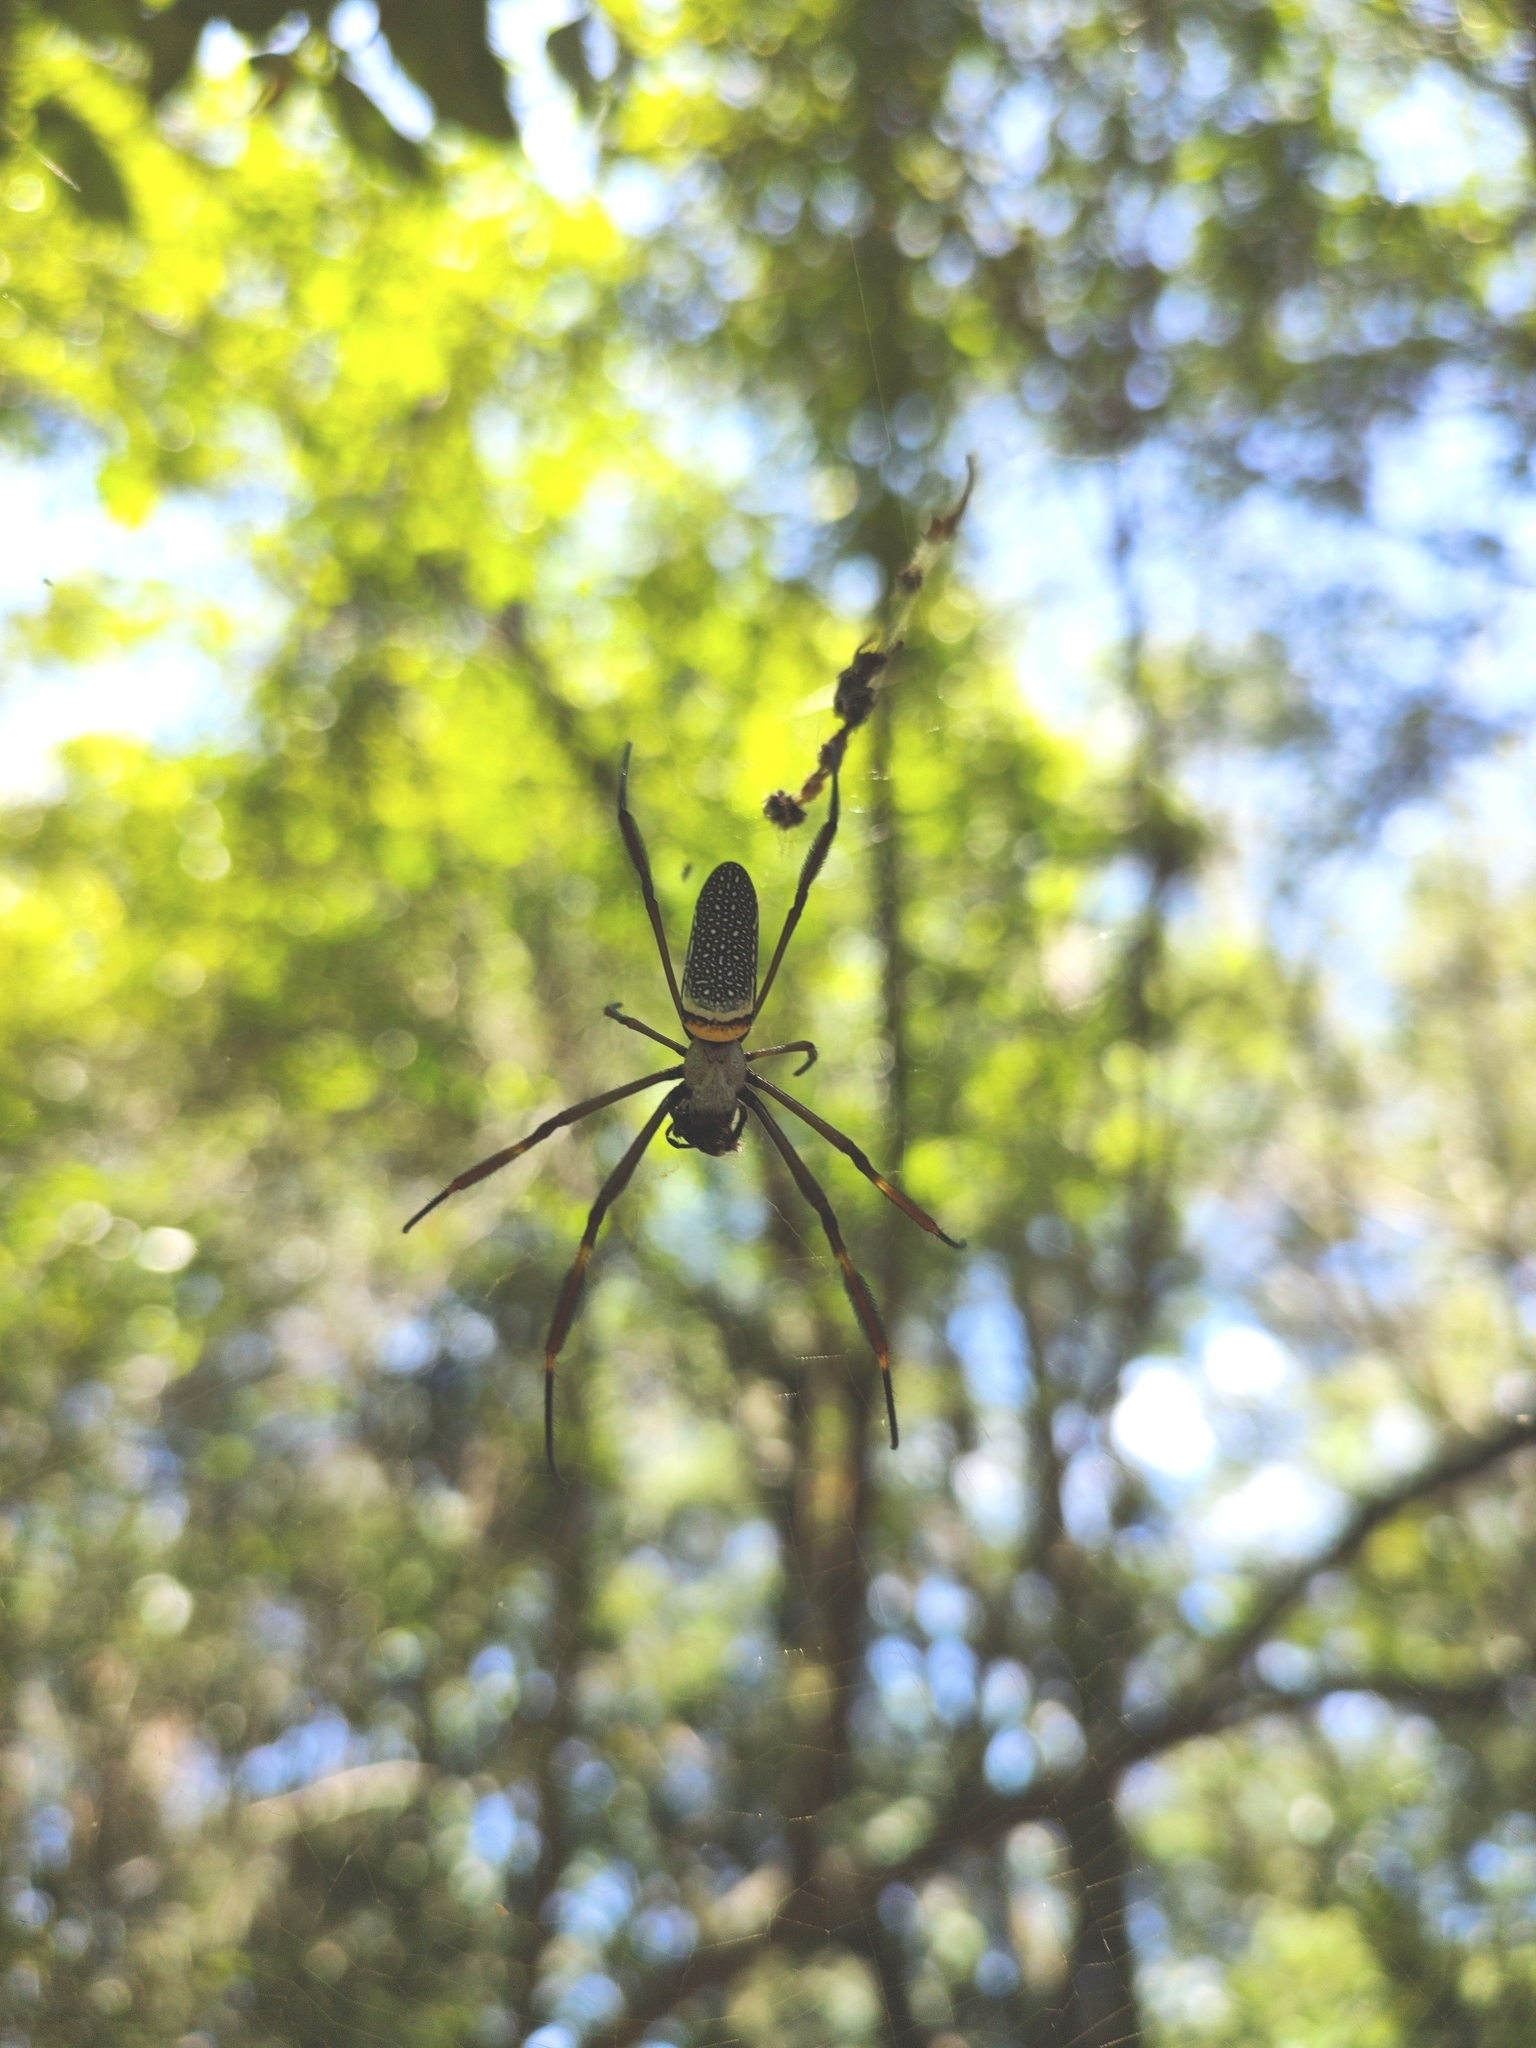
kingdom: Animalia
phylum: Arthropoda
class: Arachnida
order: Araneae
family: Araneidae
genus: Trichonephila
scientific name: Trichonephila clavipes
